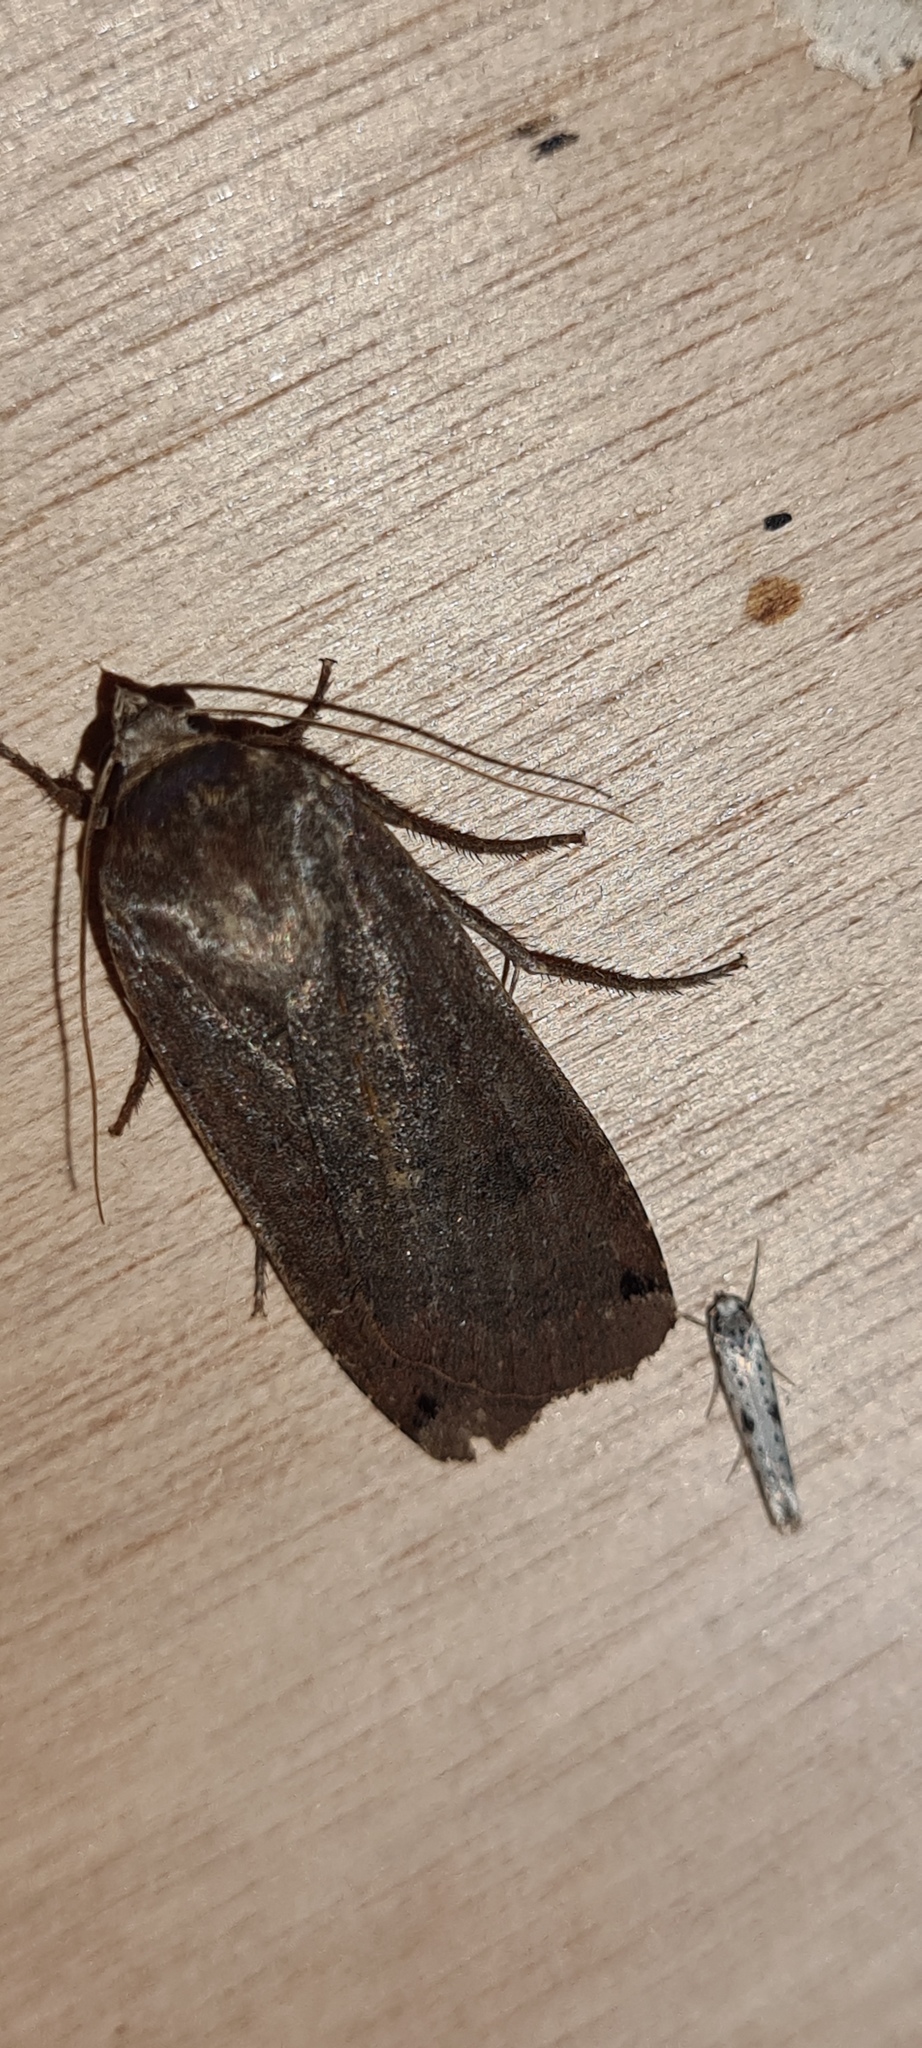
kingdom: Animalia
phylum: Arthropoda
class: Insecta
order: Lepidoptera
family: Noctuidae
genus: Noctua
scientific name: Noctua pronuba
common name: Large yellow underwing
